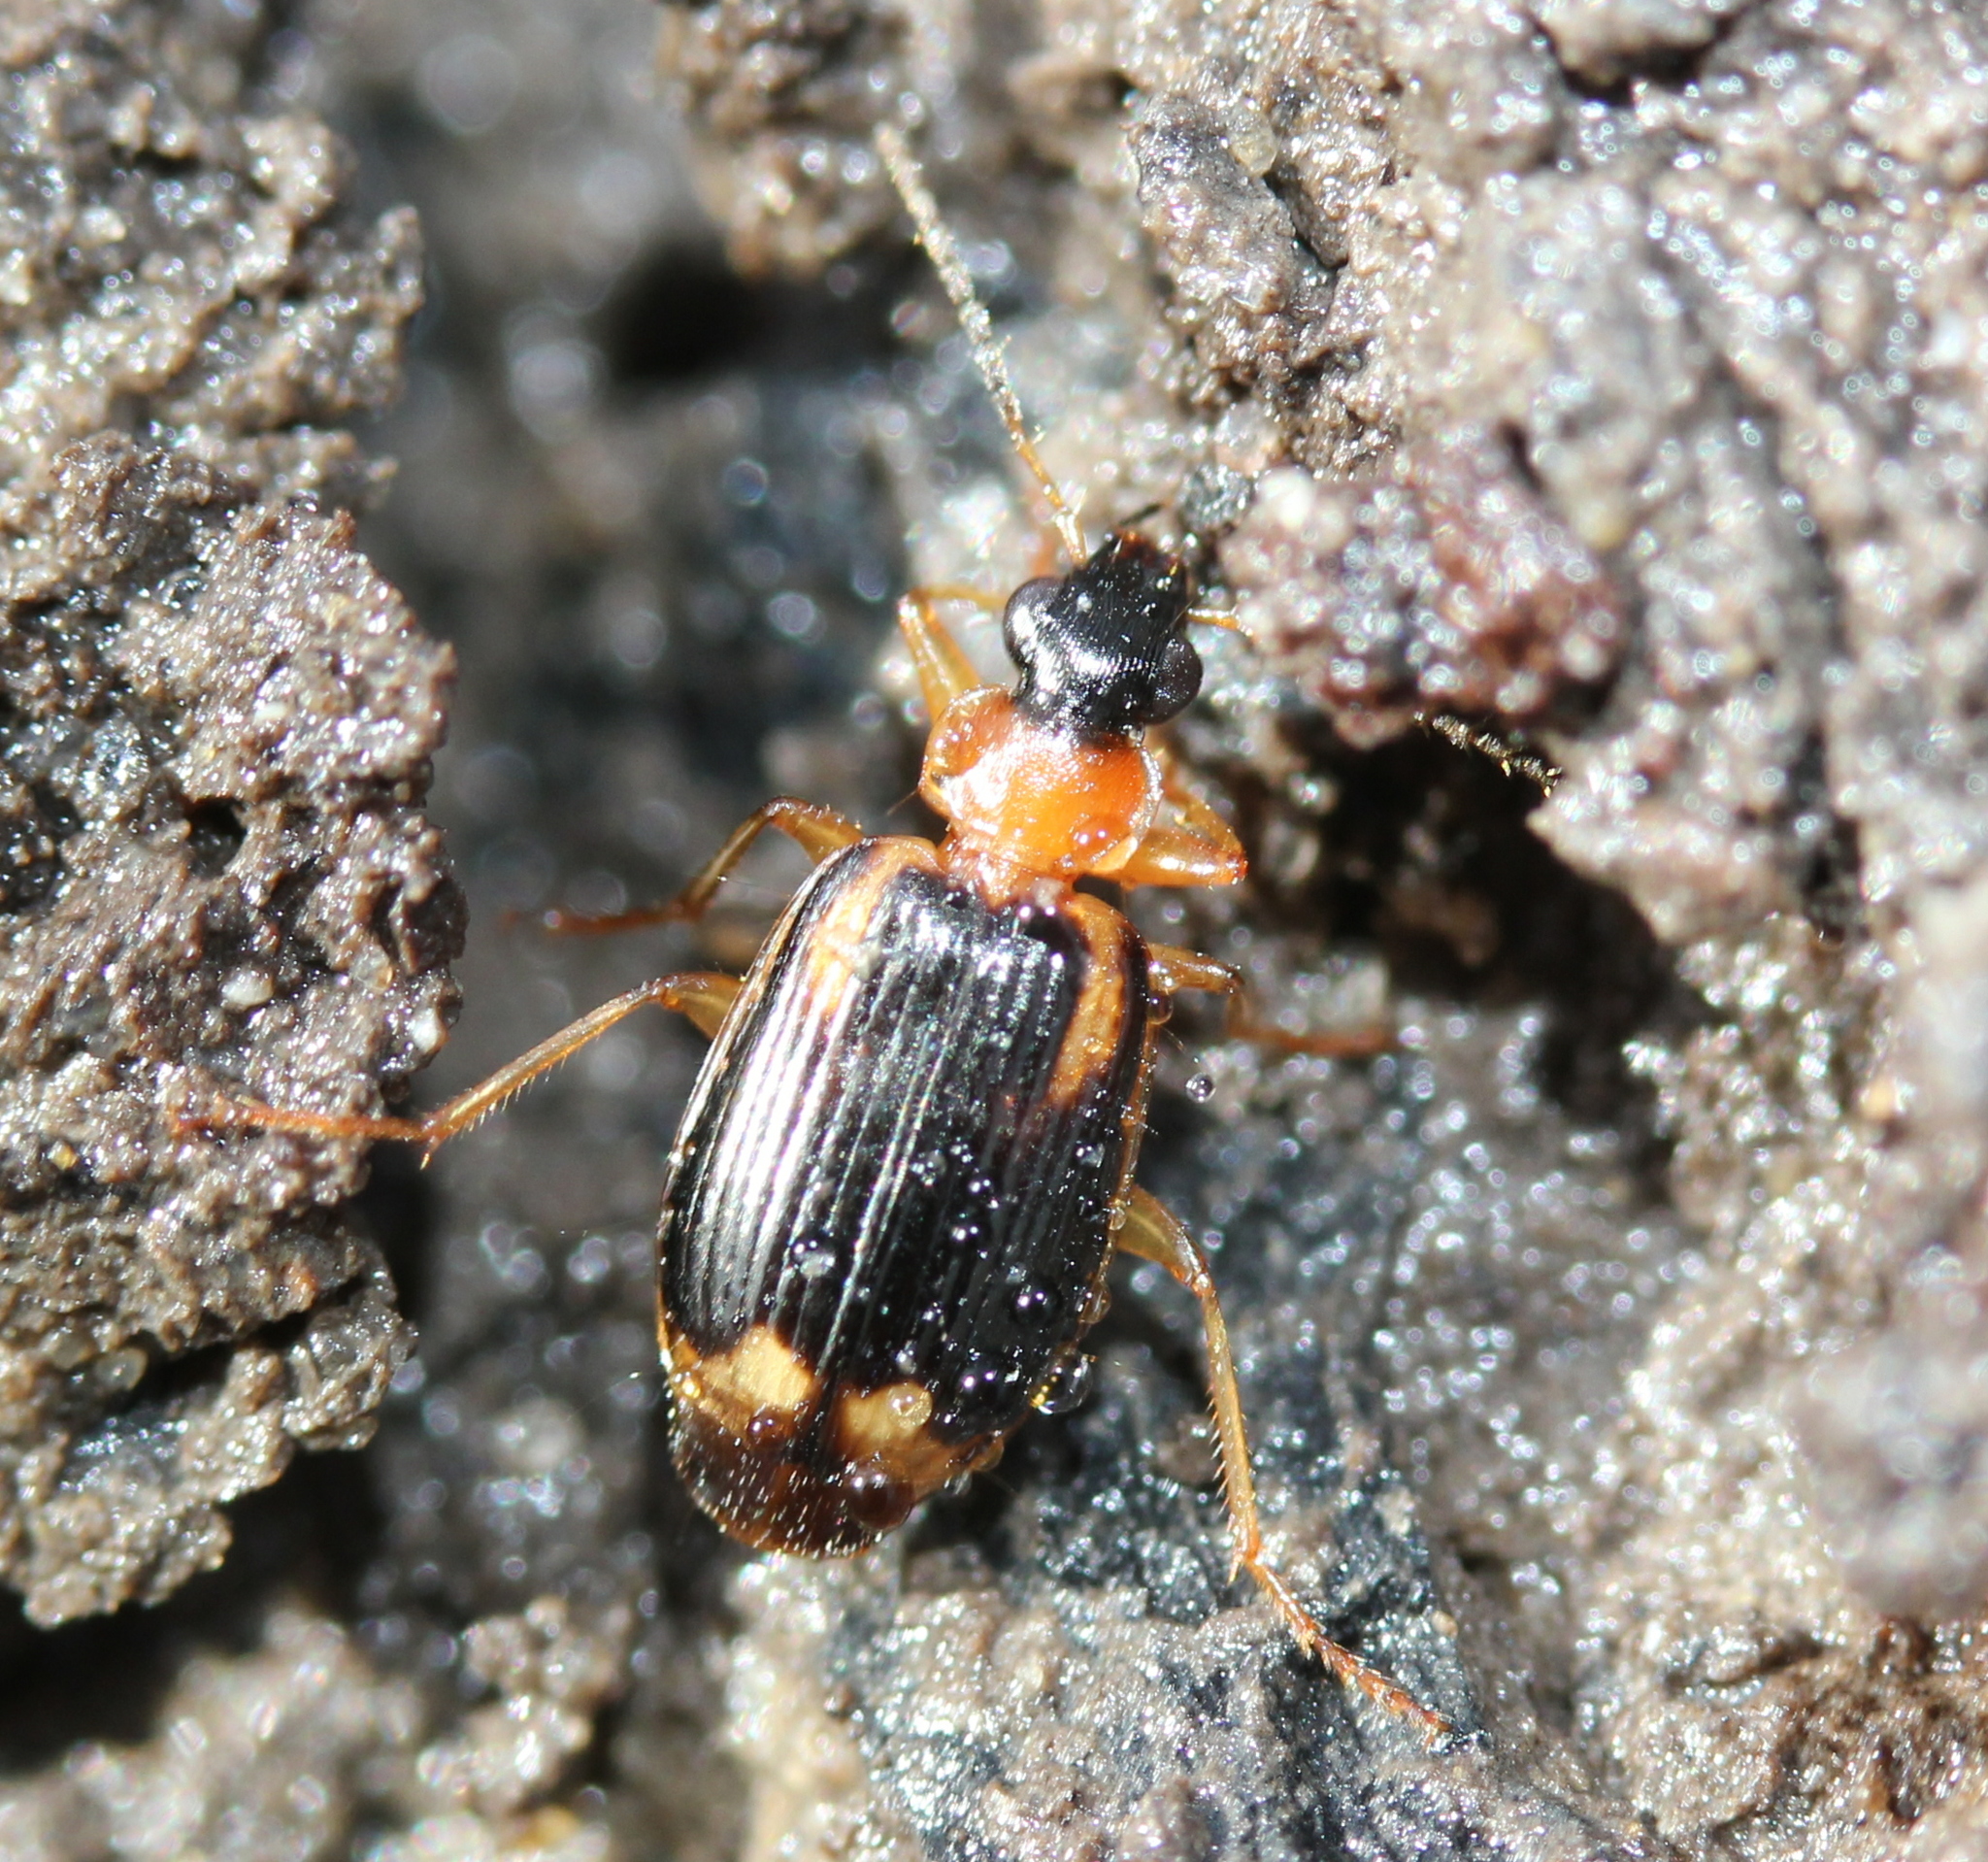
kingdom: Animalia
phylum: Arthropoda
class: Insecta
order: Coleoptera
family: Carabidae
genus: Lebia
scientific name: Lebia analis
